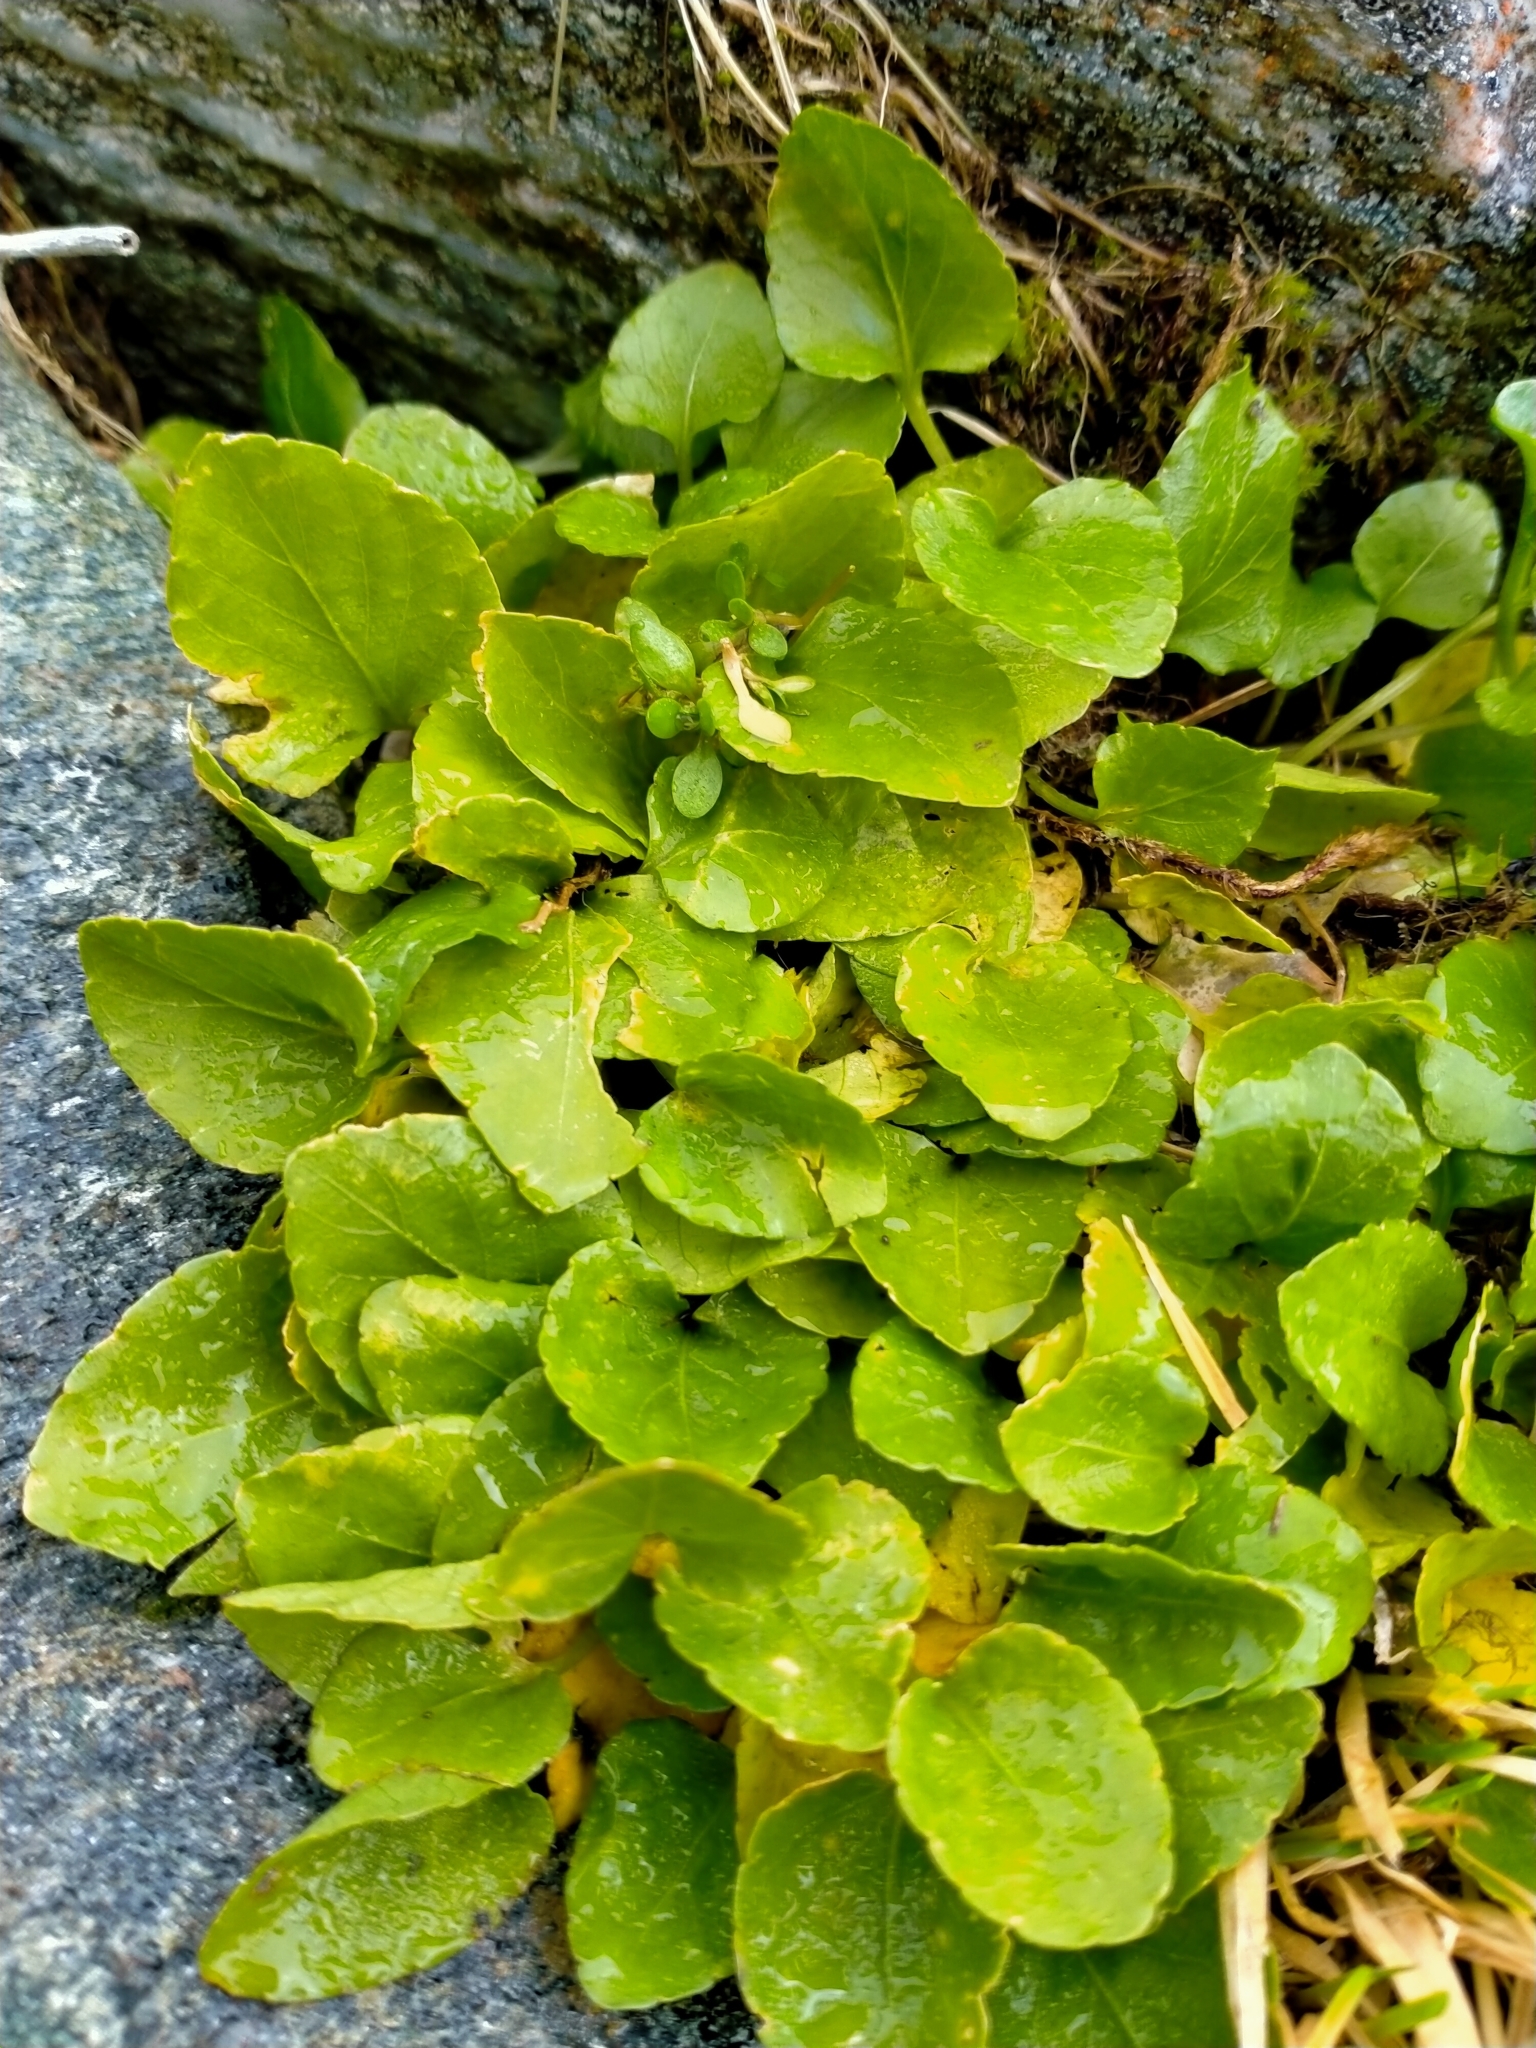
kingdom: Plantae
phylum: Tracheophyta
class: Magnoliopsida
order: Malpighiales
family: Violaceae
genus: Viola
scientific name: Viola cunninghamii
